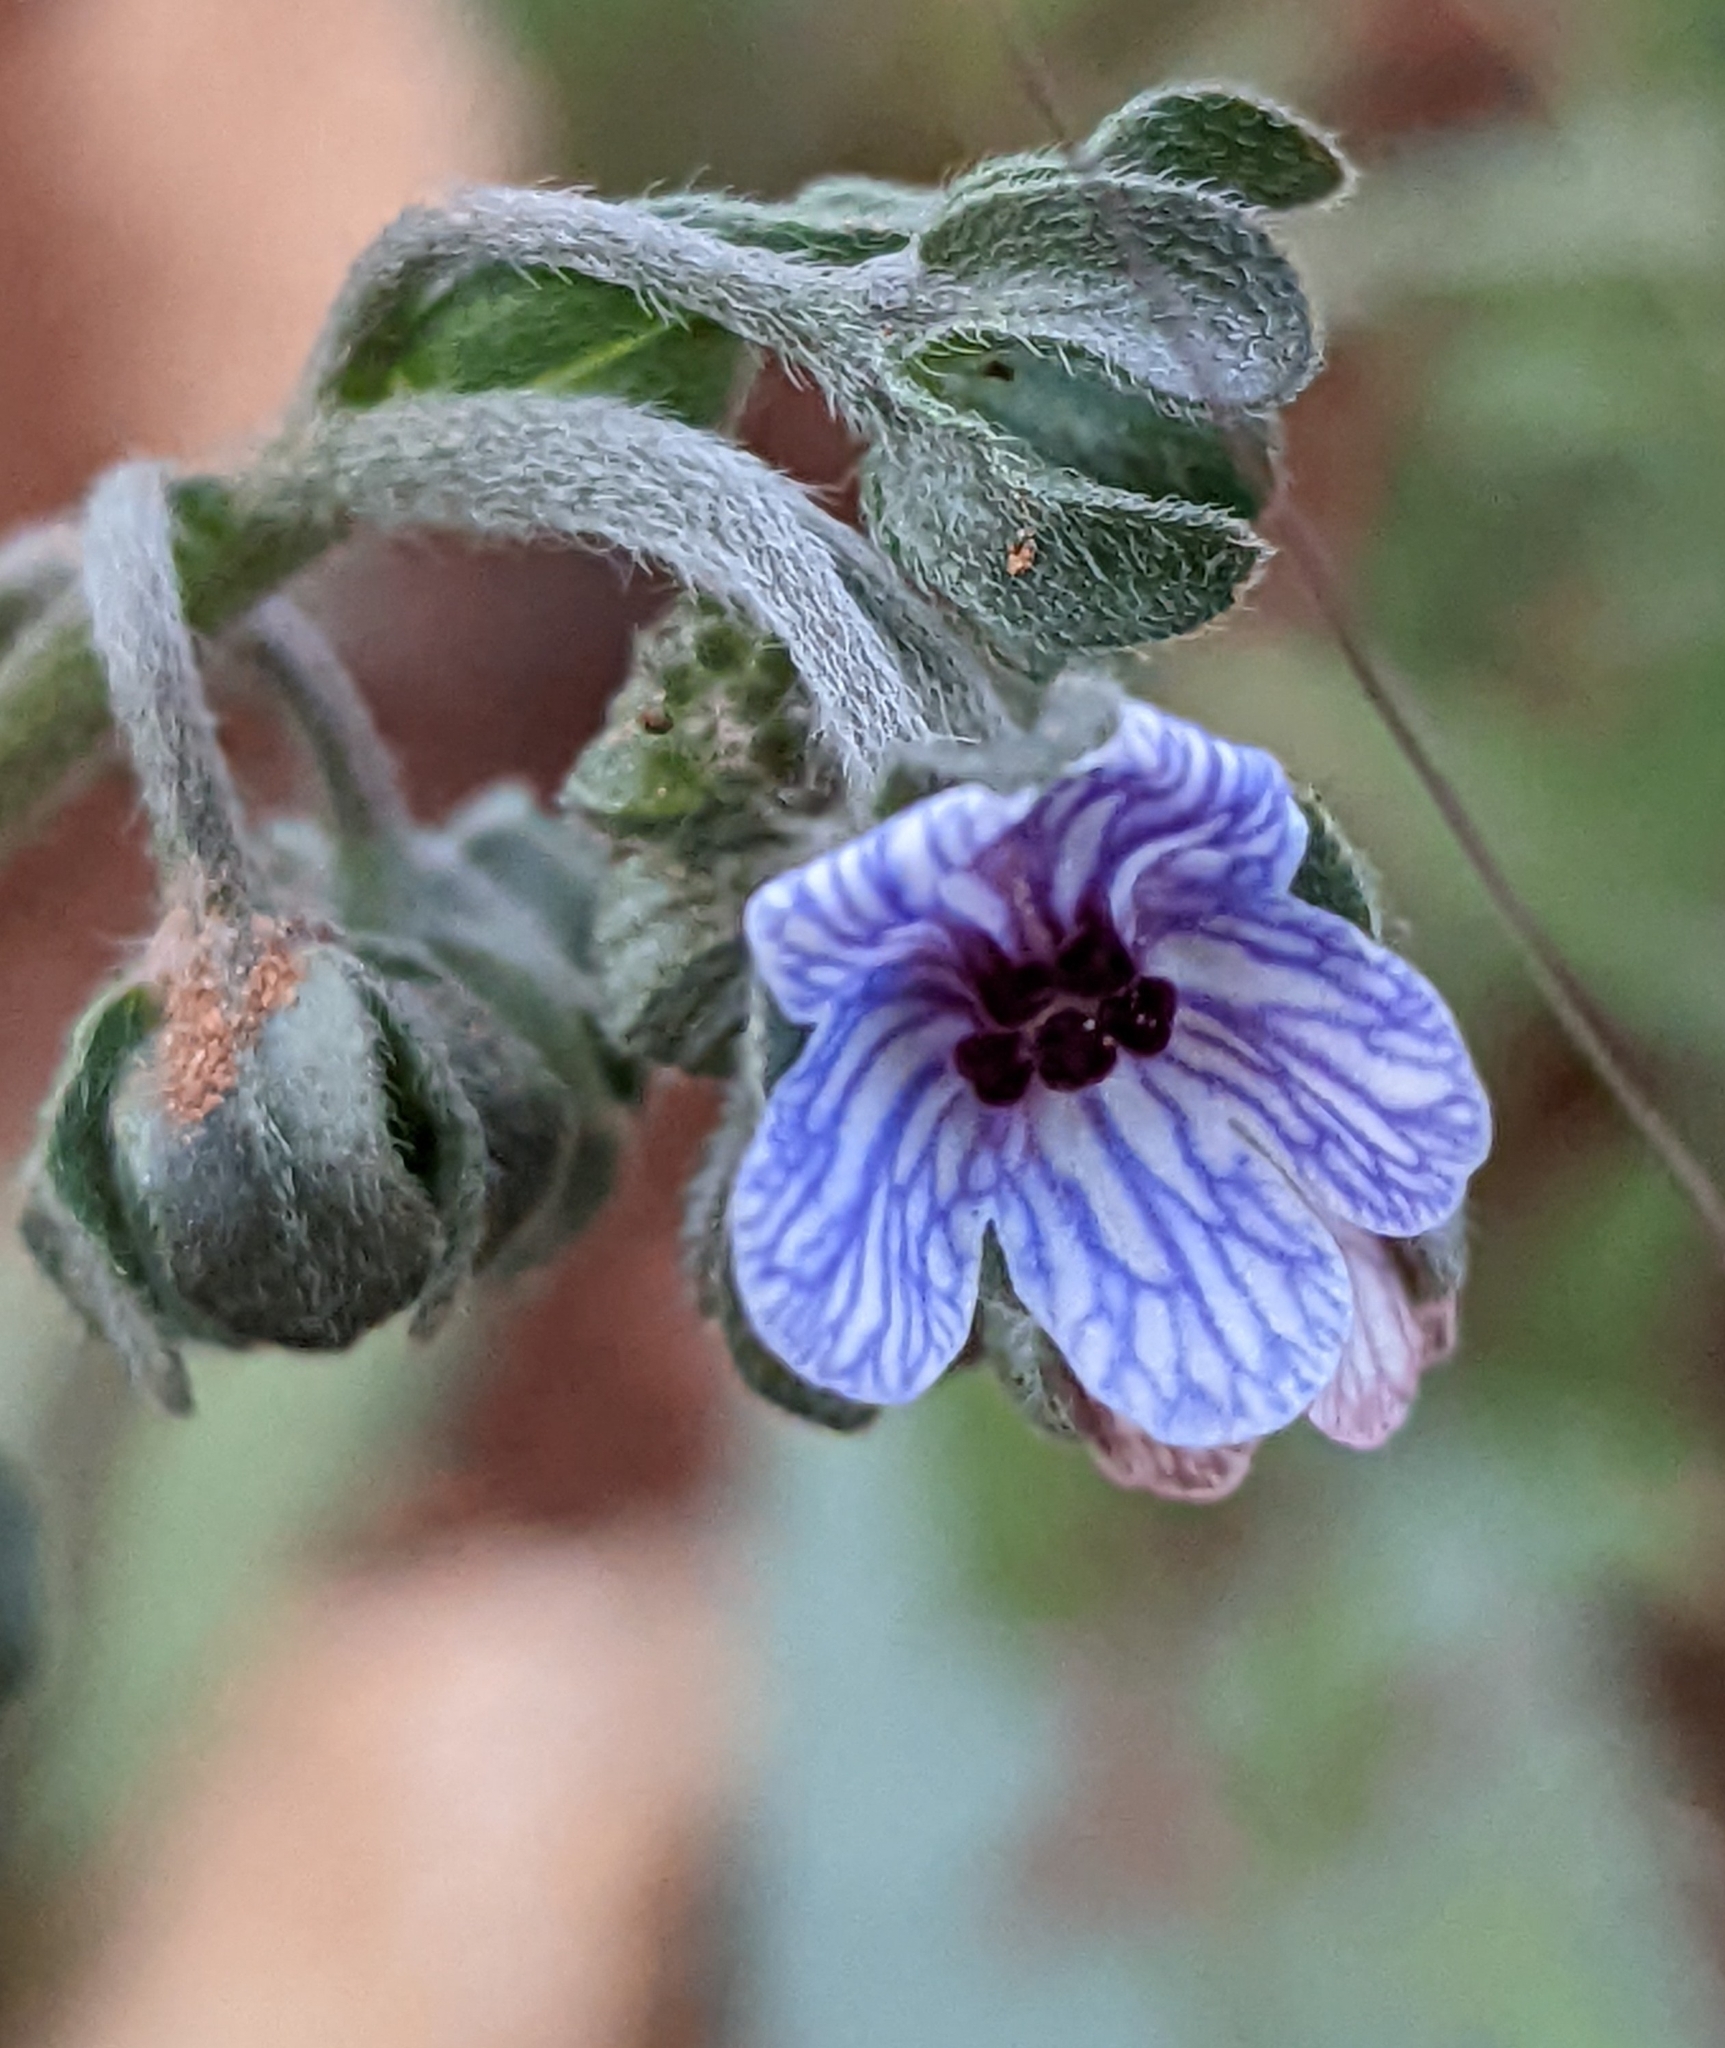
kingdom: Plantae
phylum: Tracheophyta
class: Magnoliopsida
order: Boraginales
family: Boraginaceae
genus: Cynoglossum
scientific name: Cynoglossum creticum
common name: Blue hound's tongue
